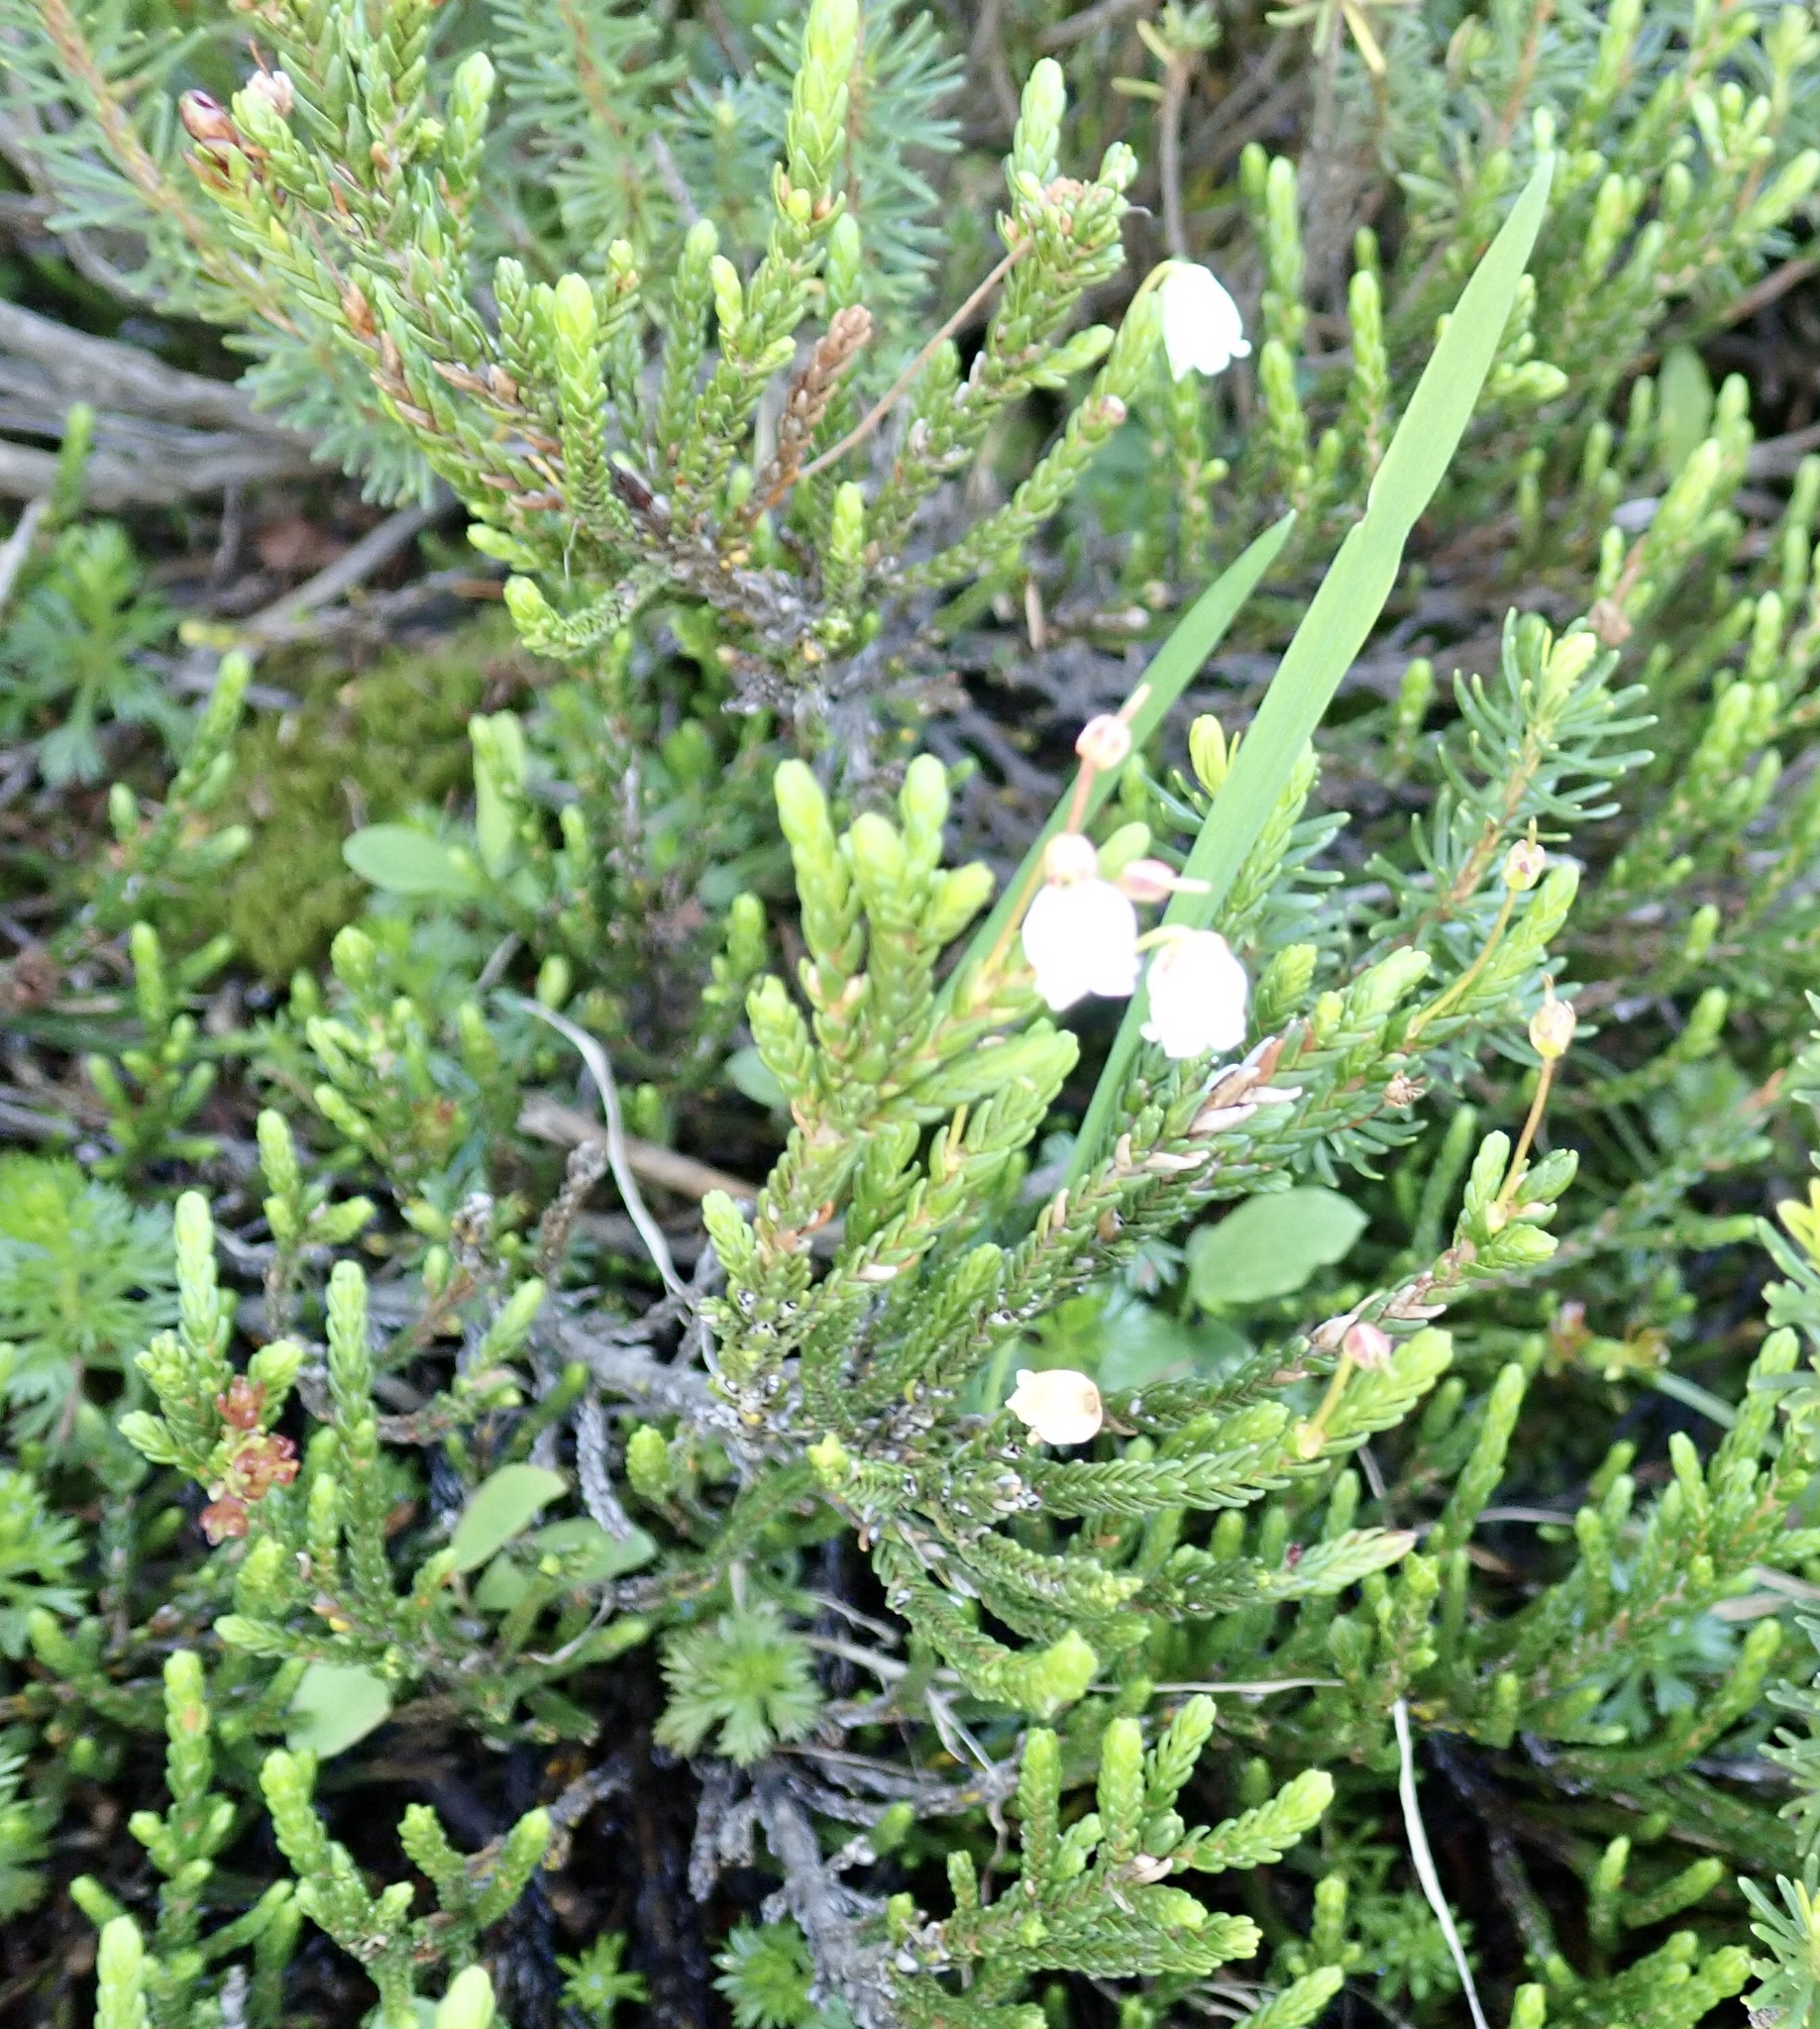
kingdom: Plantae
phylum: Tracheophyta
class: Magnoliopsida
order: Ericales
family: Ericaceae
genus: Cassiope
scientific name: Cassiope mertensiana
